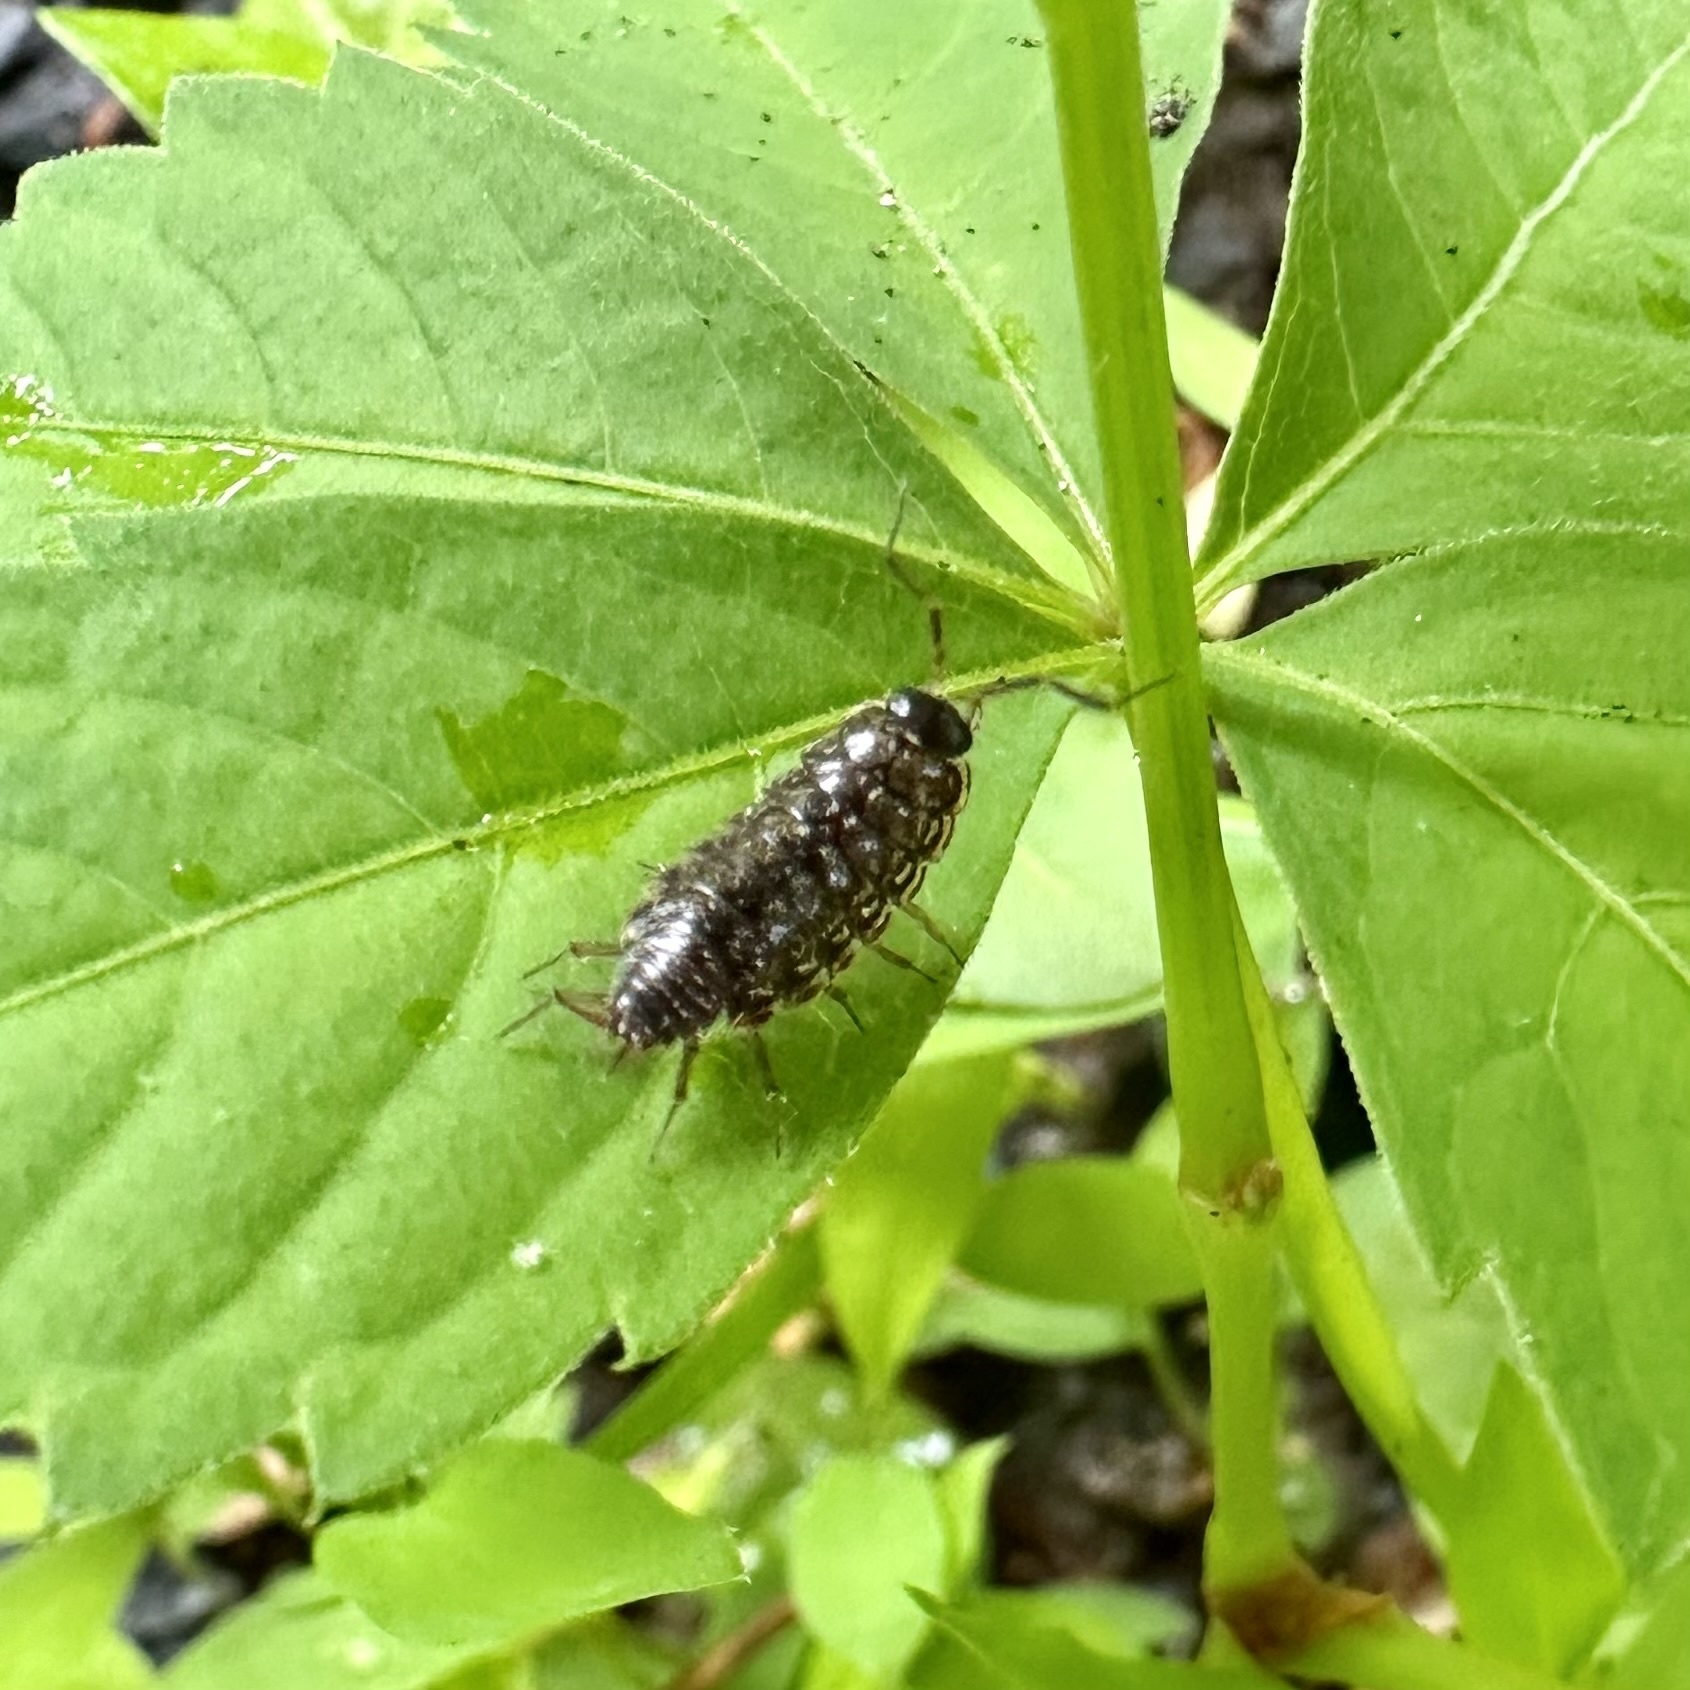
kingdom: Animalia
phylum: Arthropoda
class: Malacostraca
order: Isopoda
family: Philosciidae
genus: Philoscia
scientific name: Philoscia muscorum
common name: Common striped woodlouse
